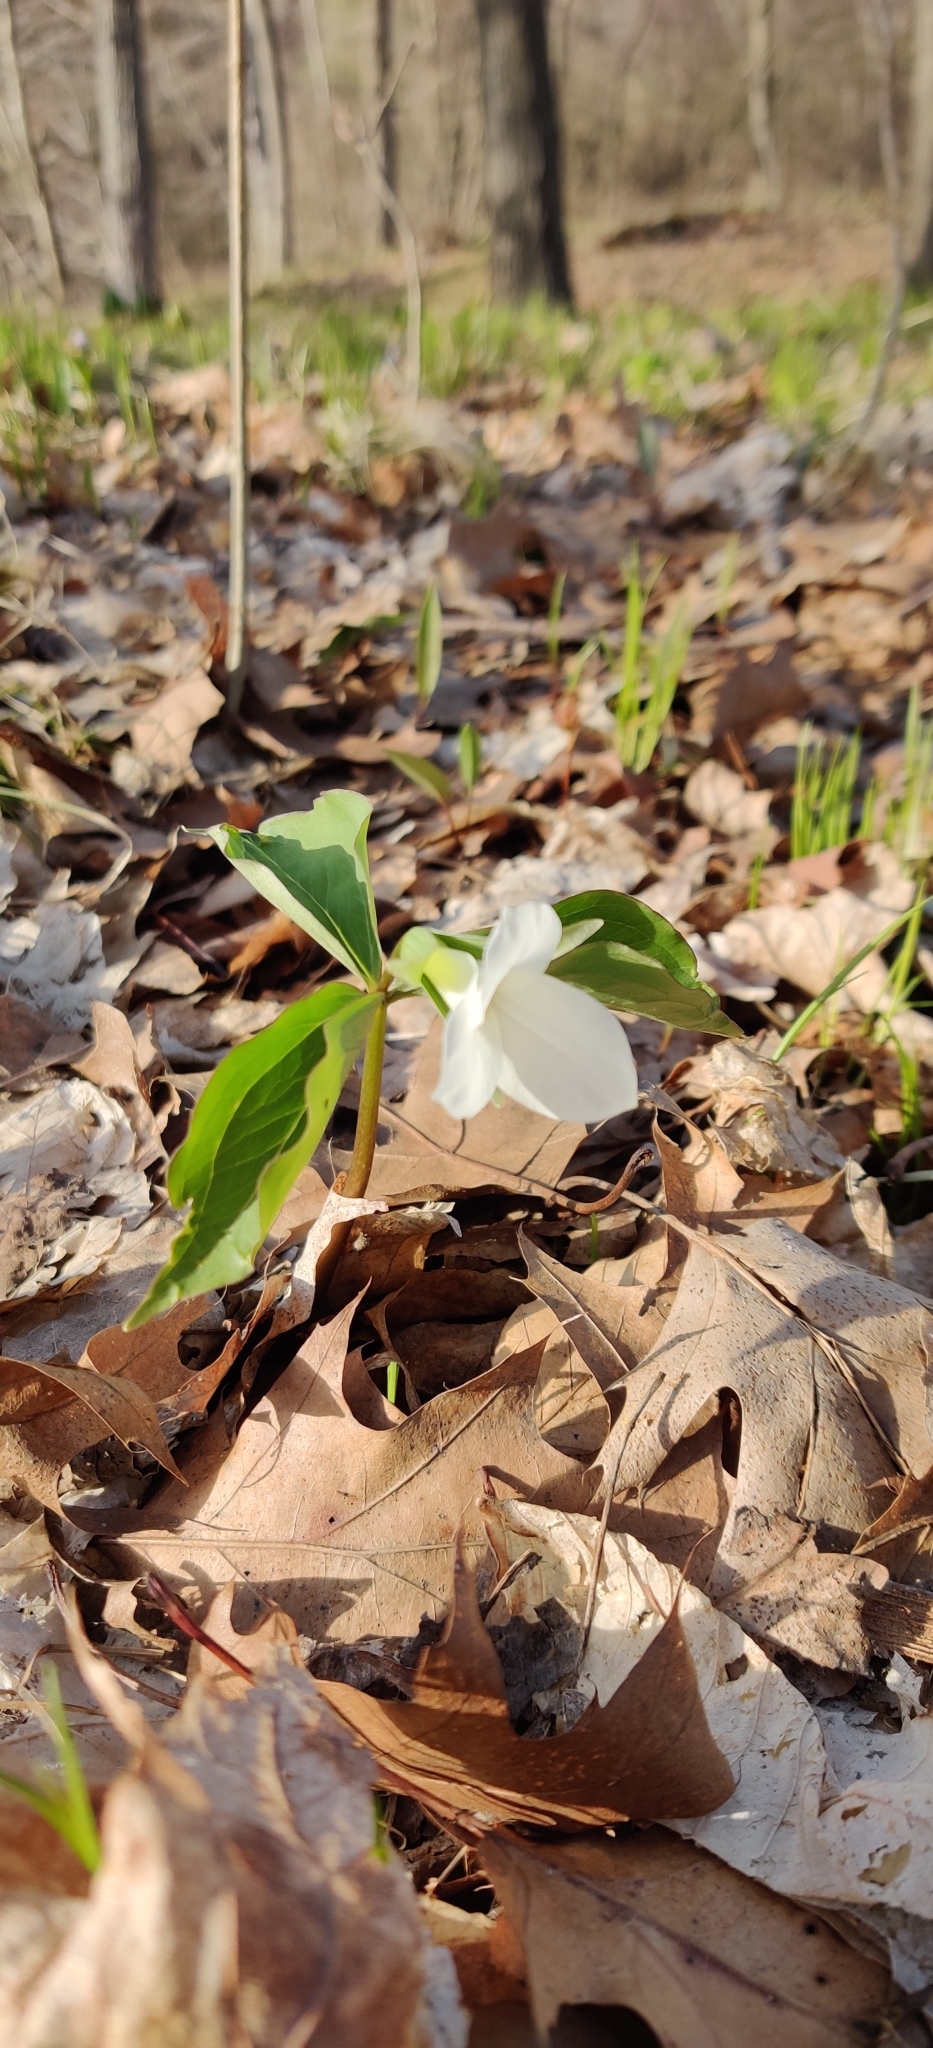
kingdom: Plantae
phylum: Tracheophyta
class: Liliopsida
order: Liliales
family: Melanthiaceae
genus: Trillium
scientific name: Trillium grandiflorum
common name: Great white trillium
